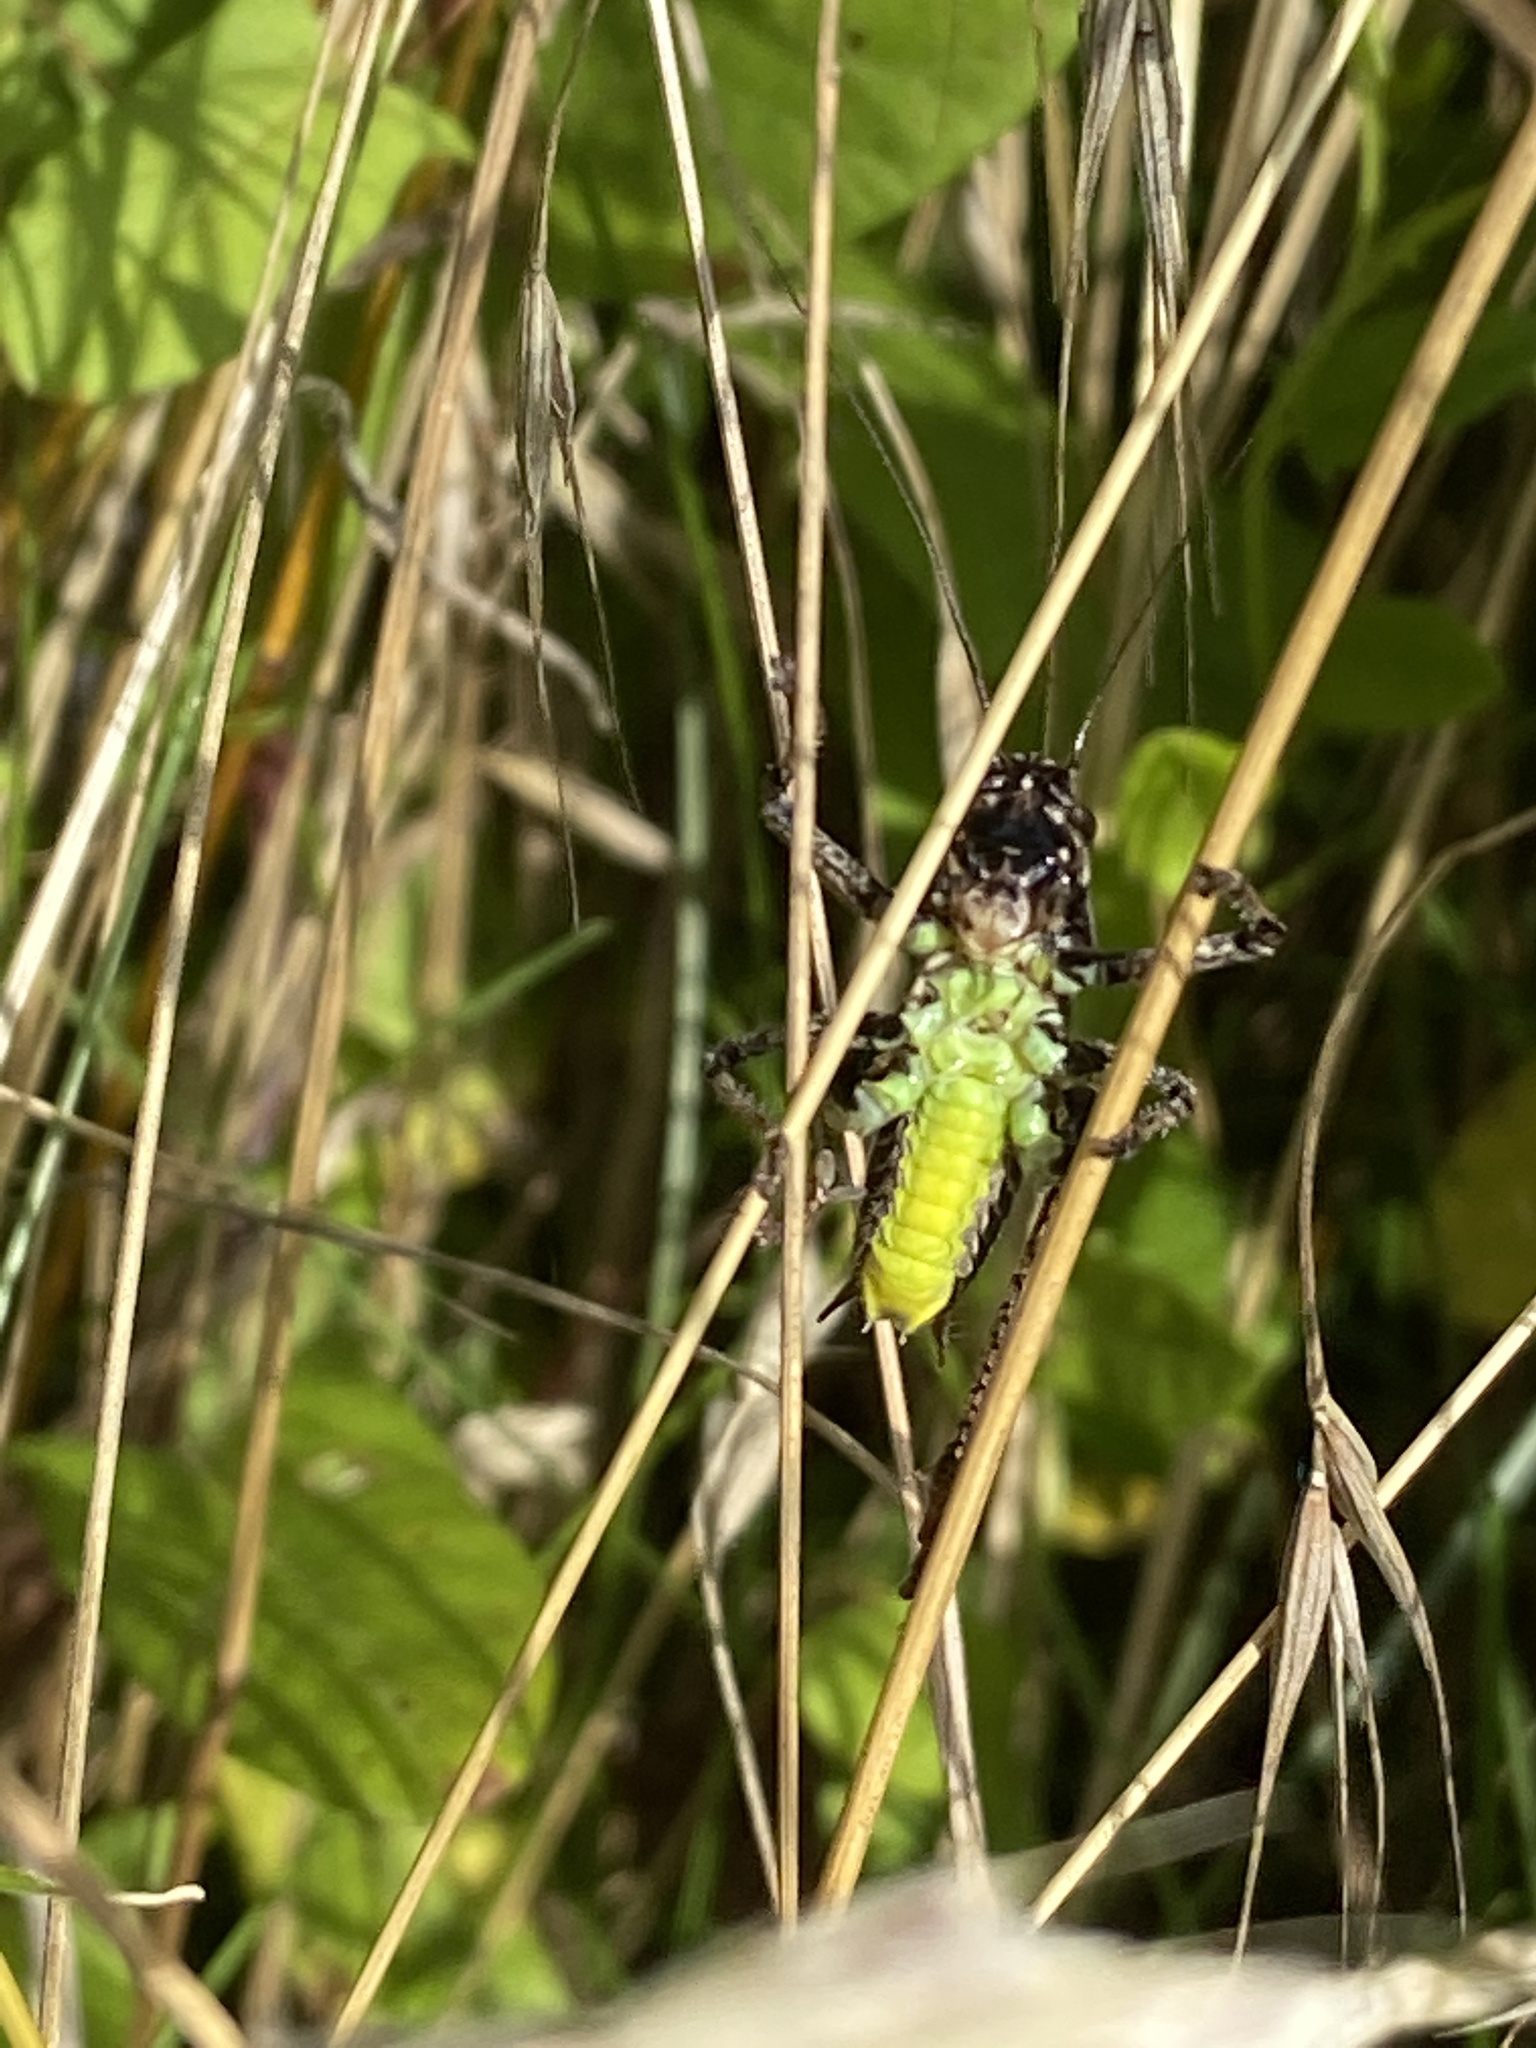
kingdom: Animalia
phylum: Arthropoda
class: Insecta
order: Orthoptera
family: Tettigoniidae
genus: Pholidoptera
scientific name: Pholidoptera griseoaptera
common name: Dark bush-cricket
